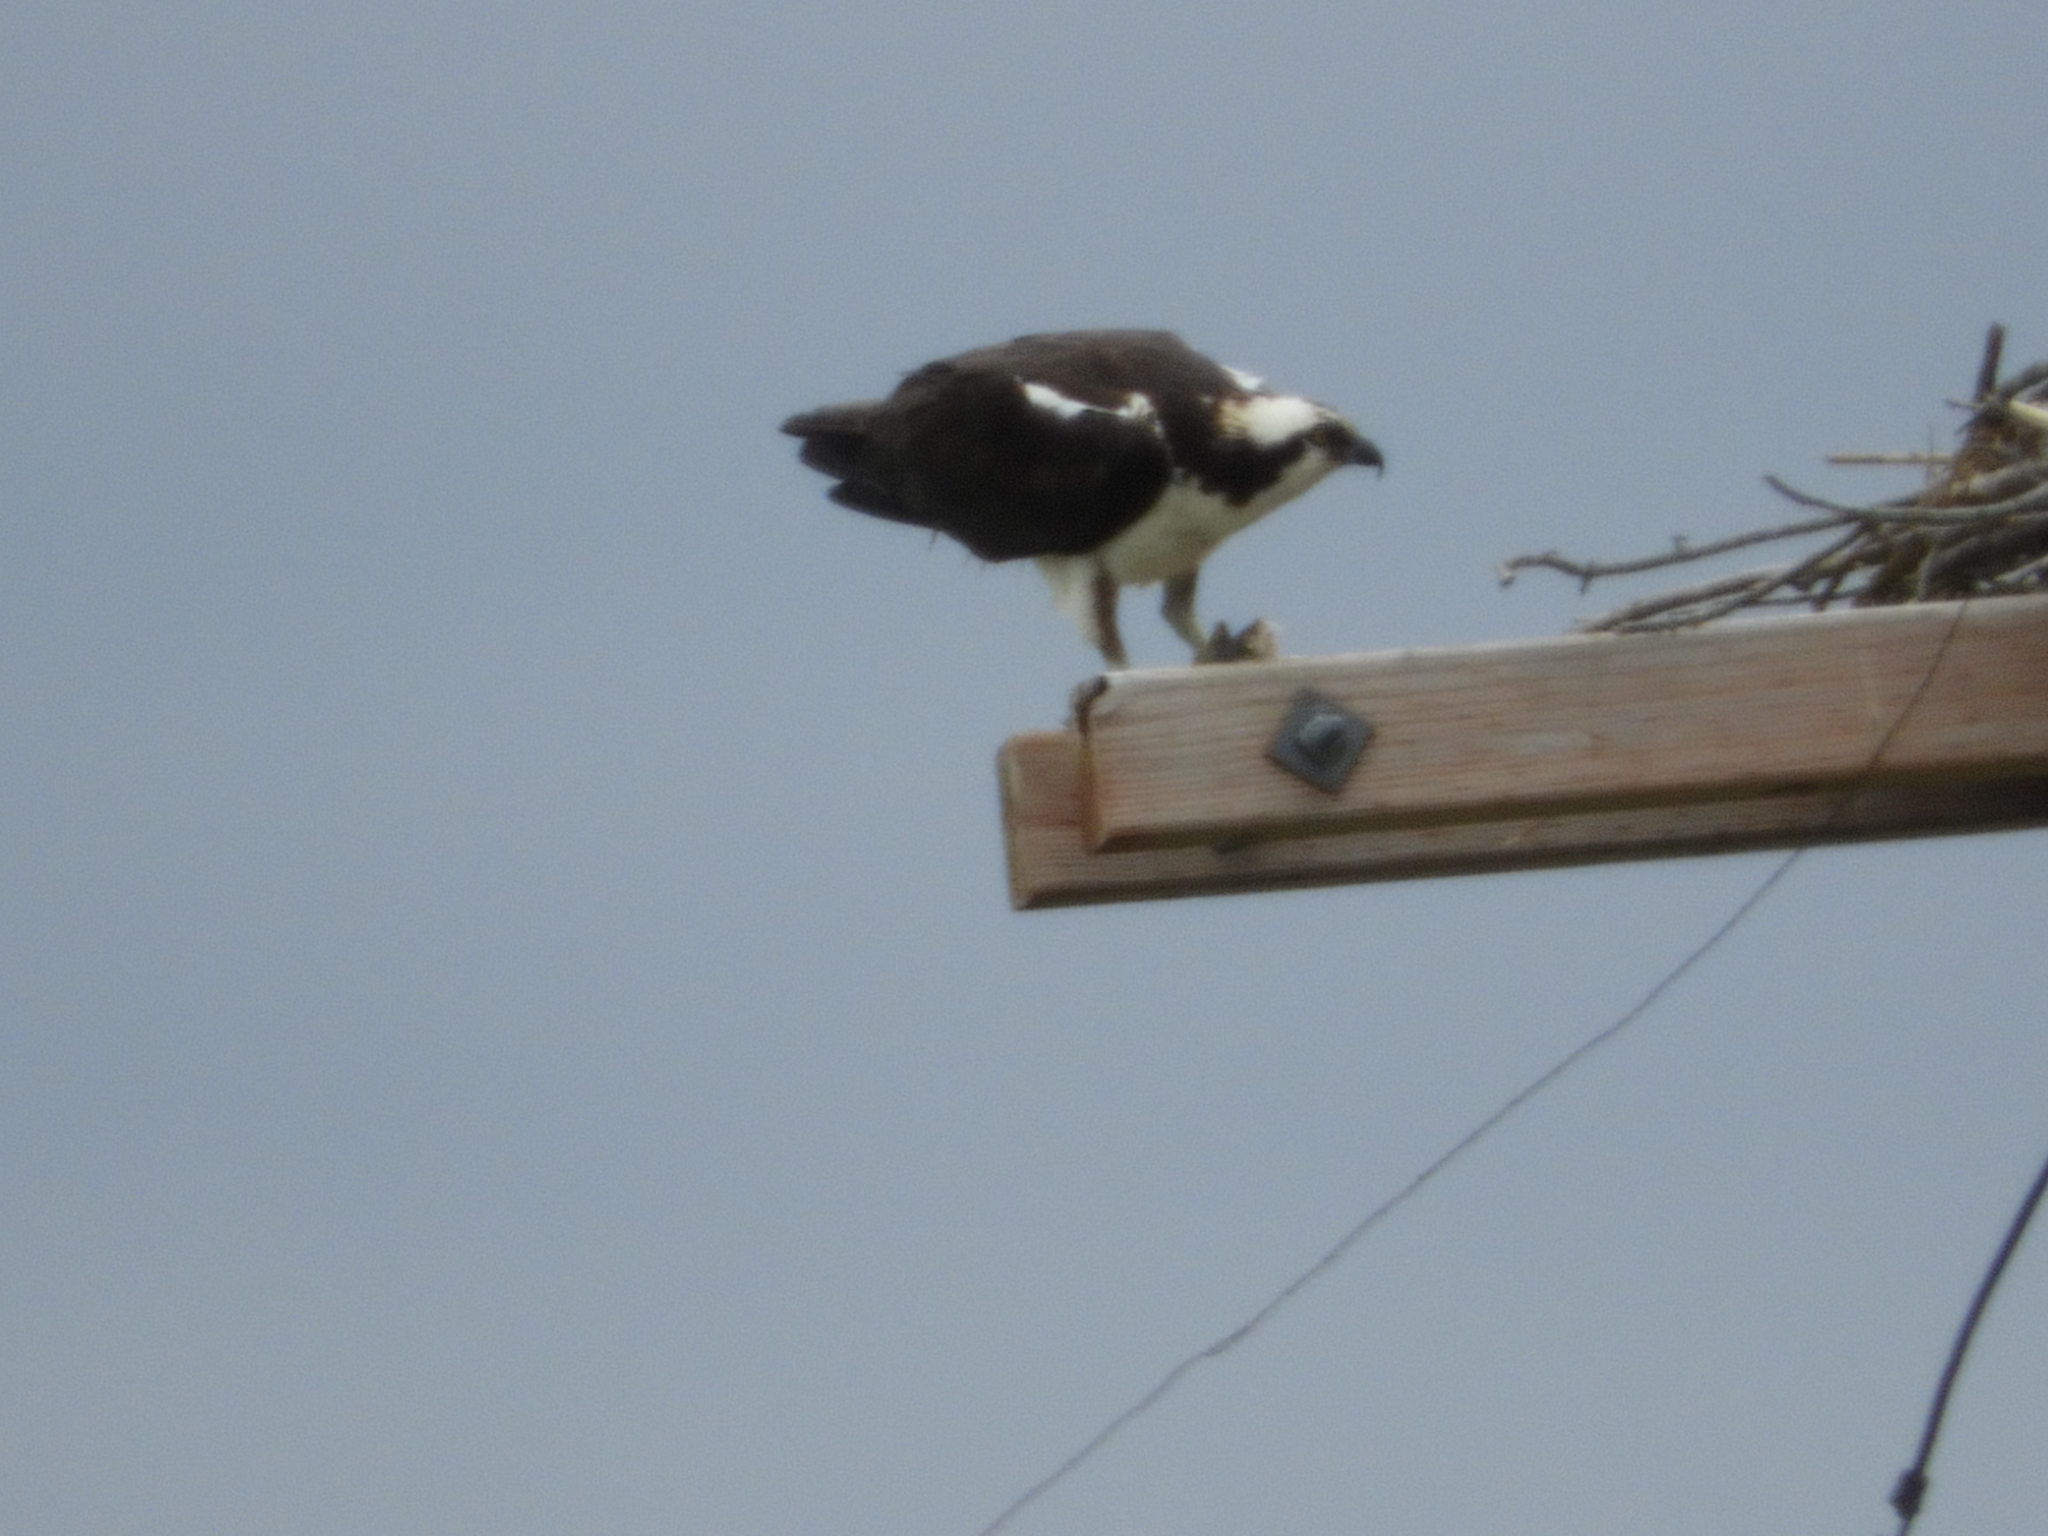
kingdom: Animalia
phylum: Chordata
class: Aves
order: Accipitriformes
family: Pandionidae
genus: Pandion
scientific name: Pandion haliaetus
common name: Osprey
